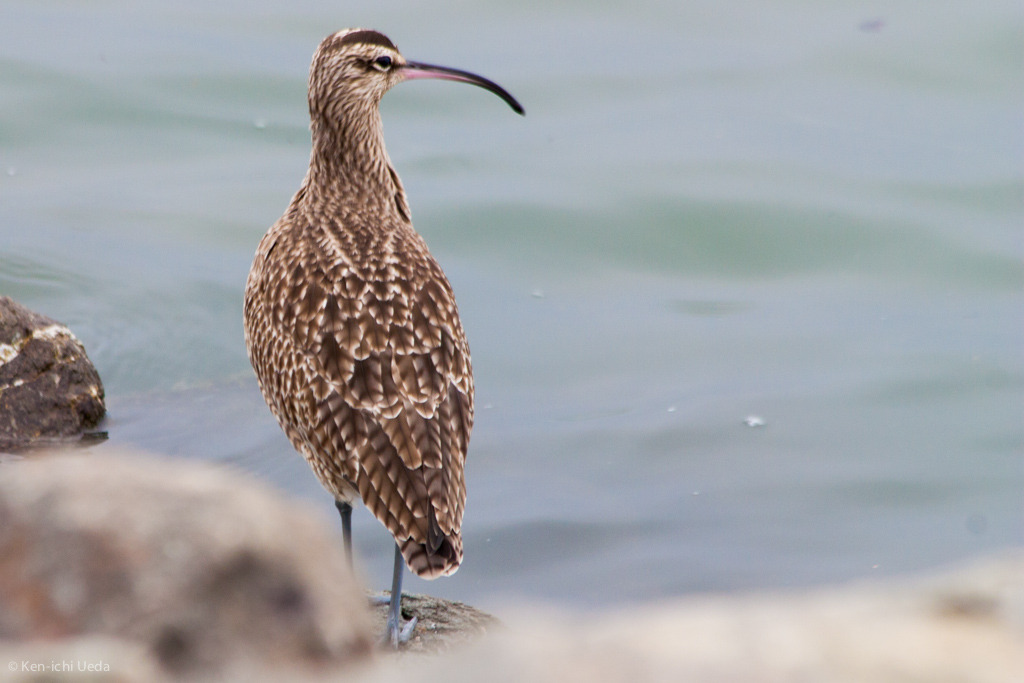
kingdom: Animalia
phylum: Chordata
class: Aves
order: Charadriiformes
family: Scolopacidae
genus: Numenius
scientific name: Numenius phaeopus
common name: Whimbrel
